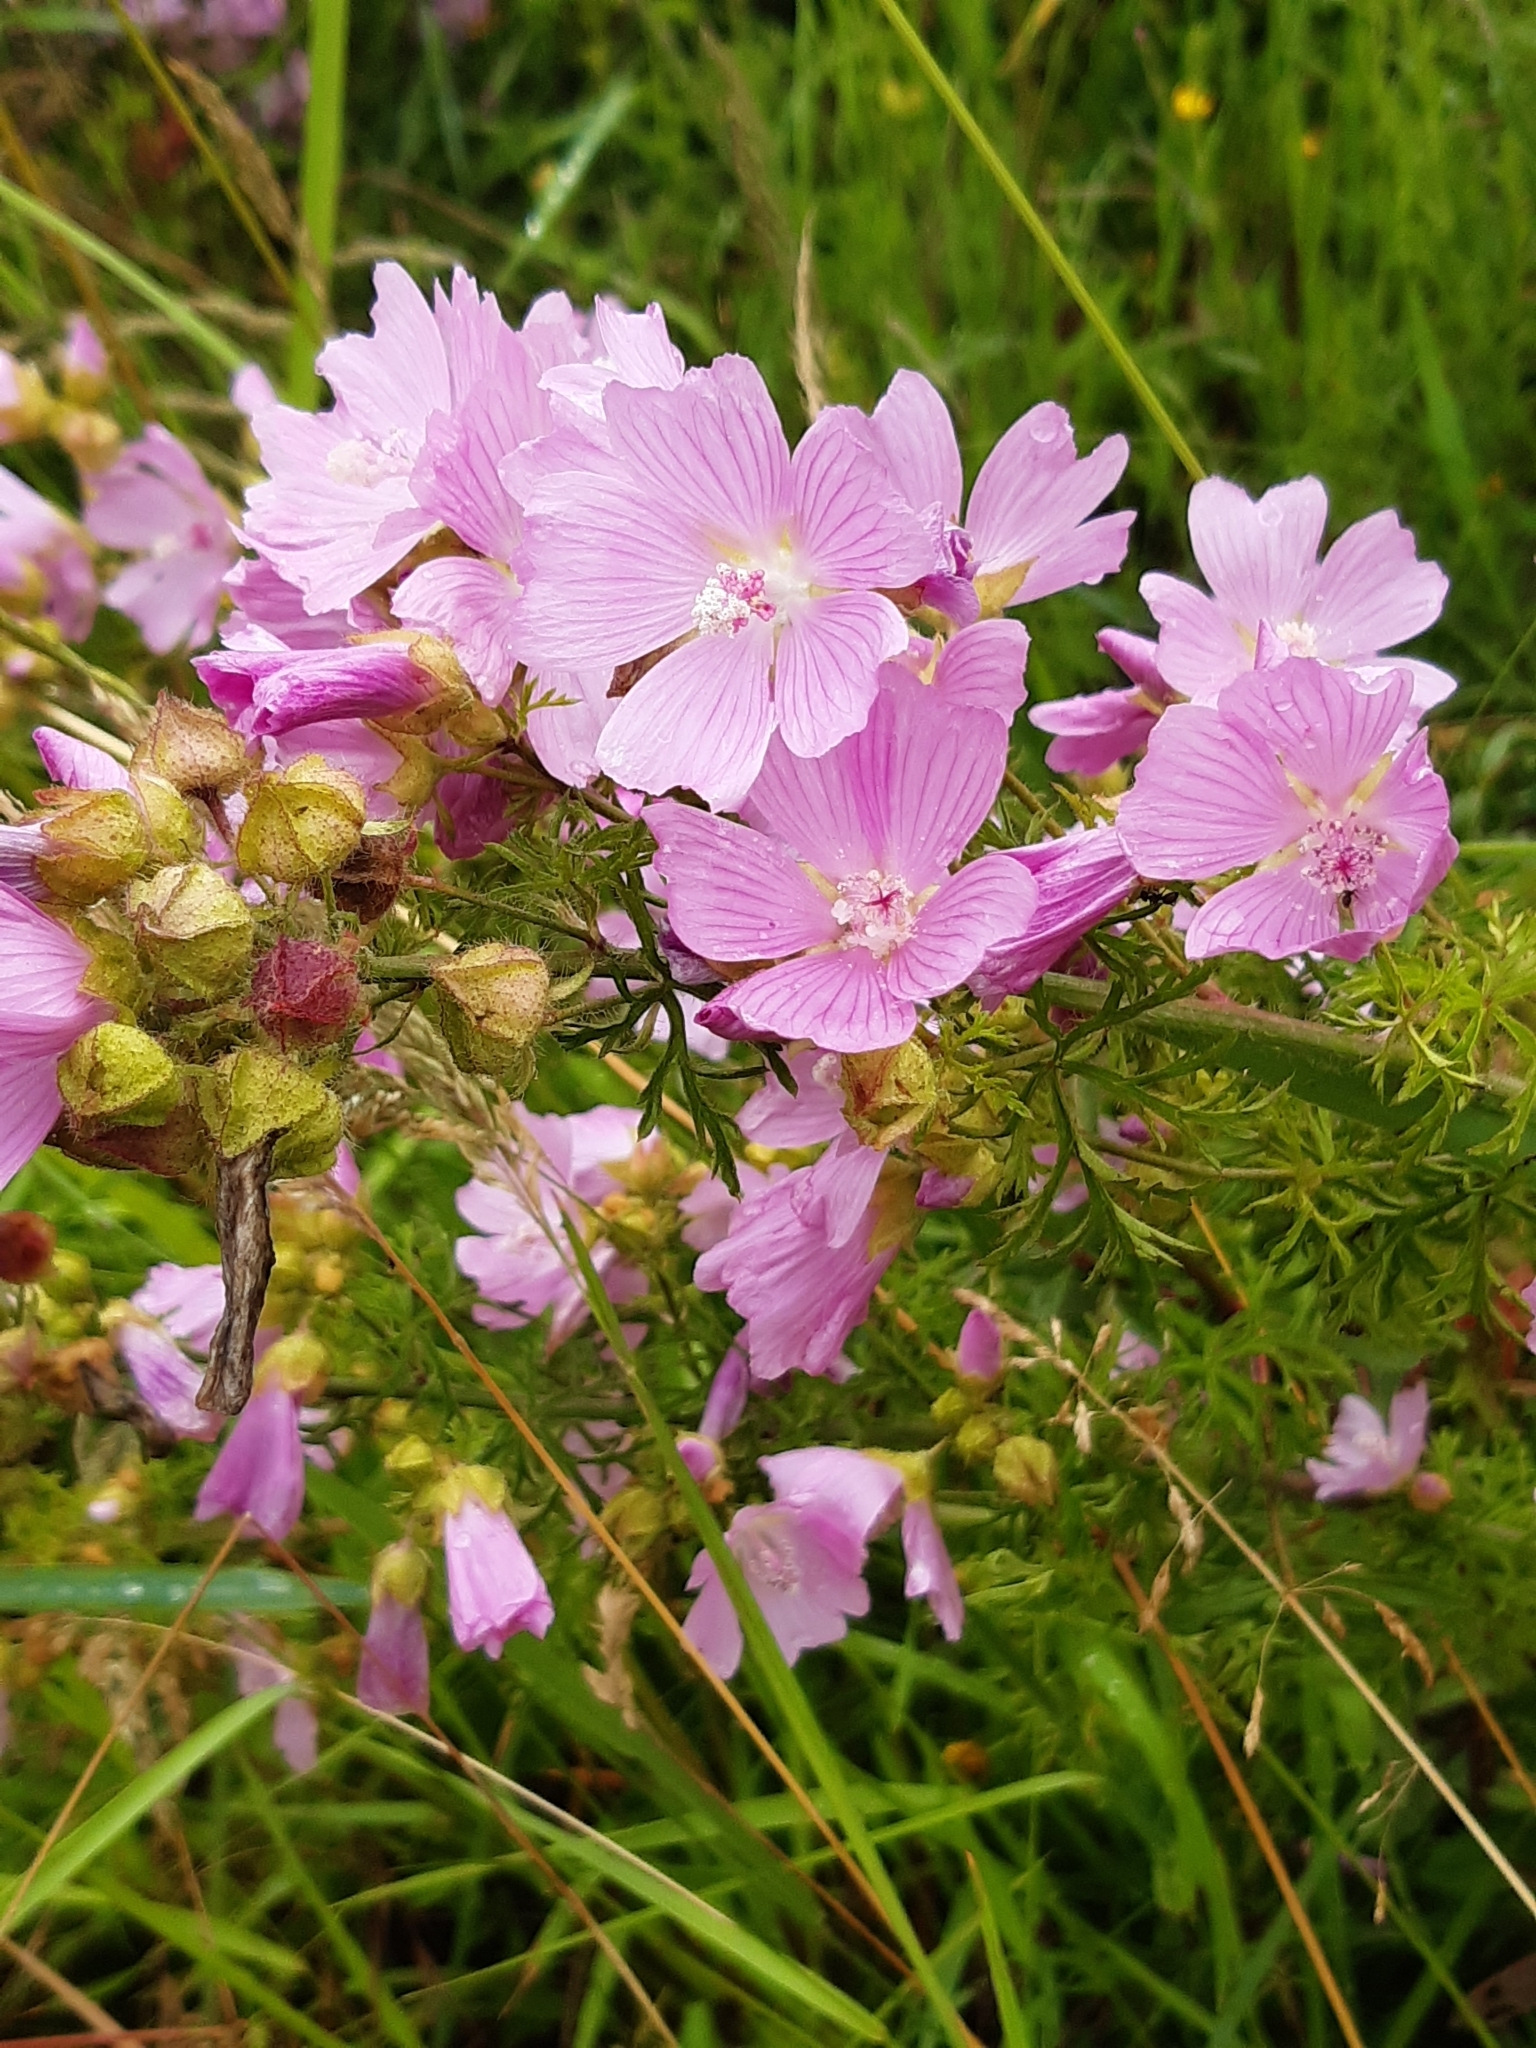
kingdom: Plantae
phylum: Tracheophyta
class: Magnoliopsida
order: Malvales
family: Malvaceae
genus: Malva
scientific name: Malva moschata
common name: Musk mallow
